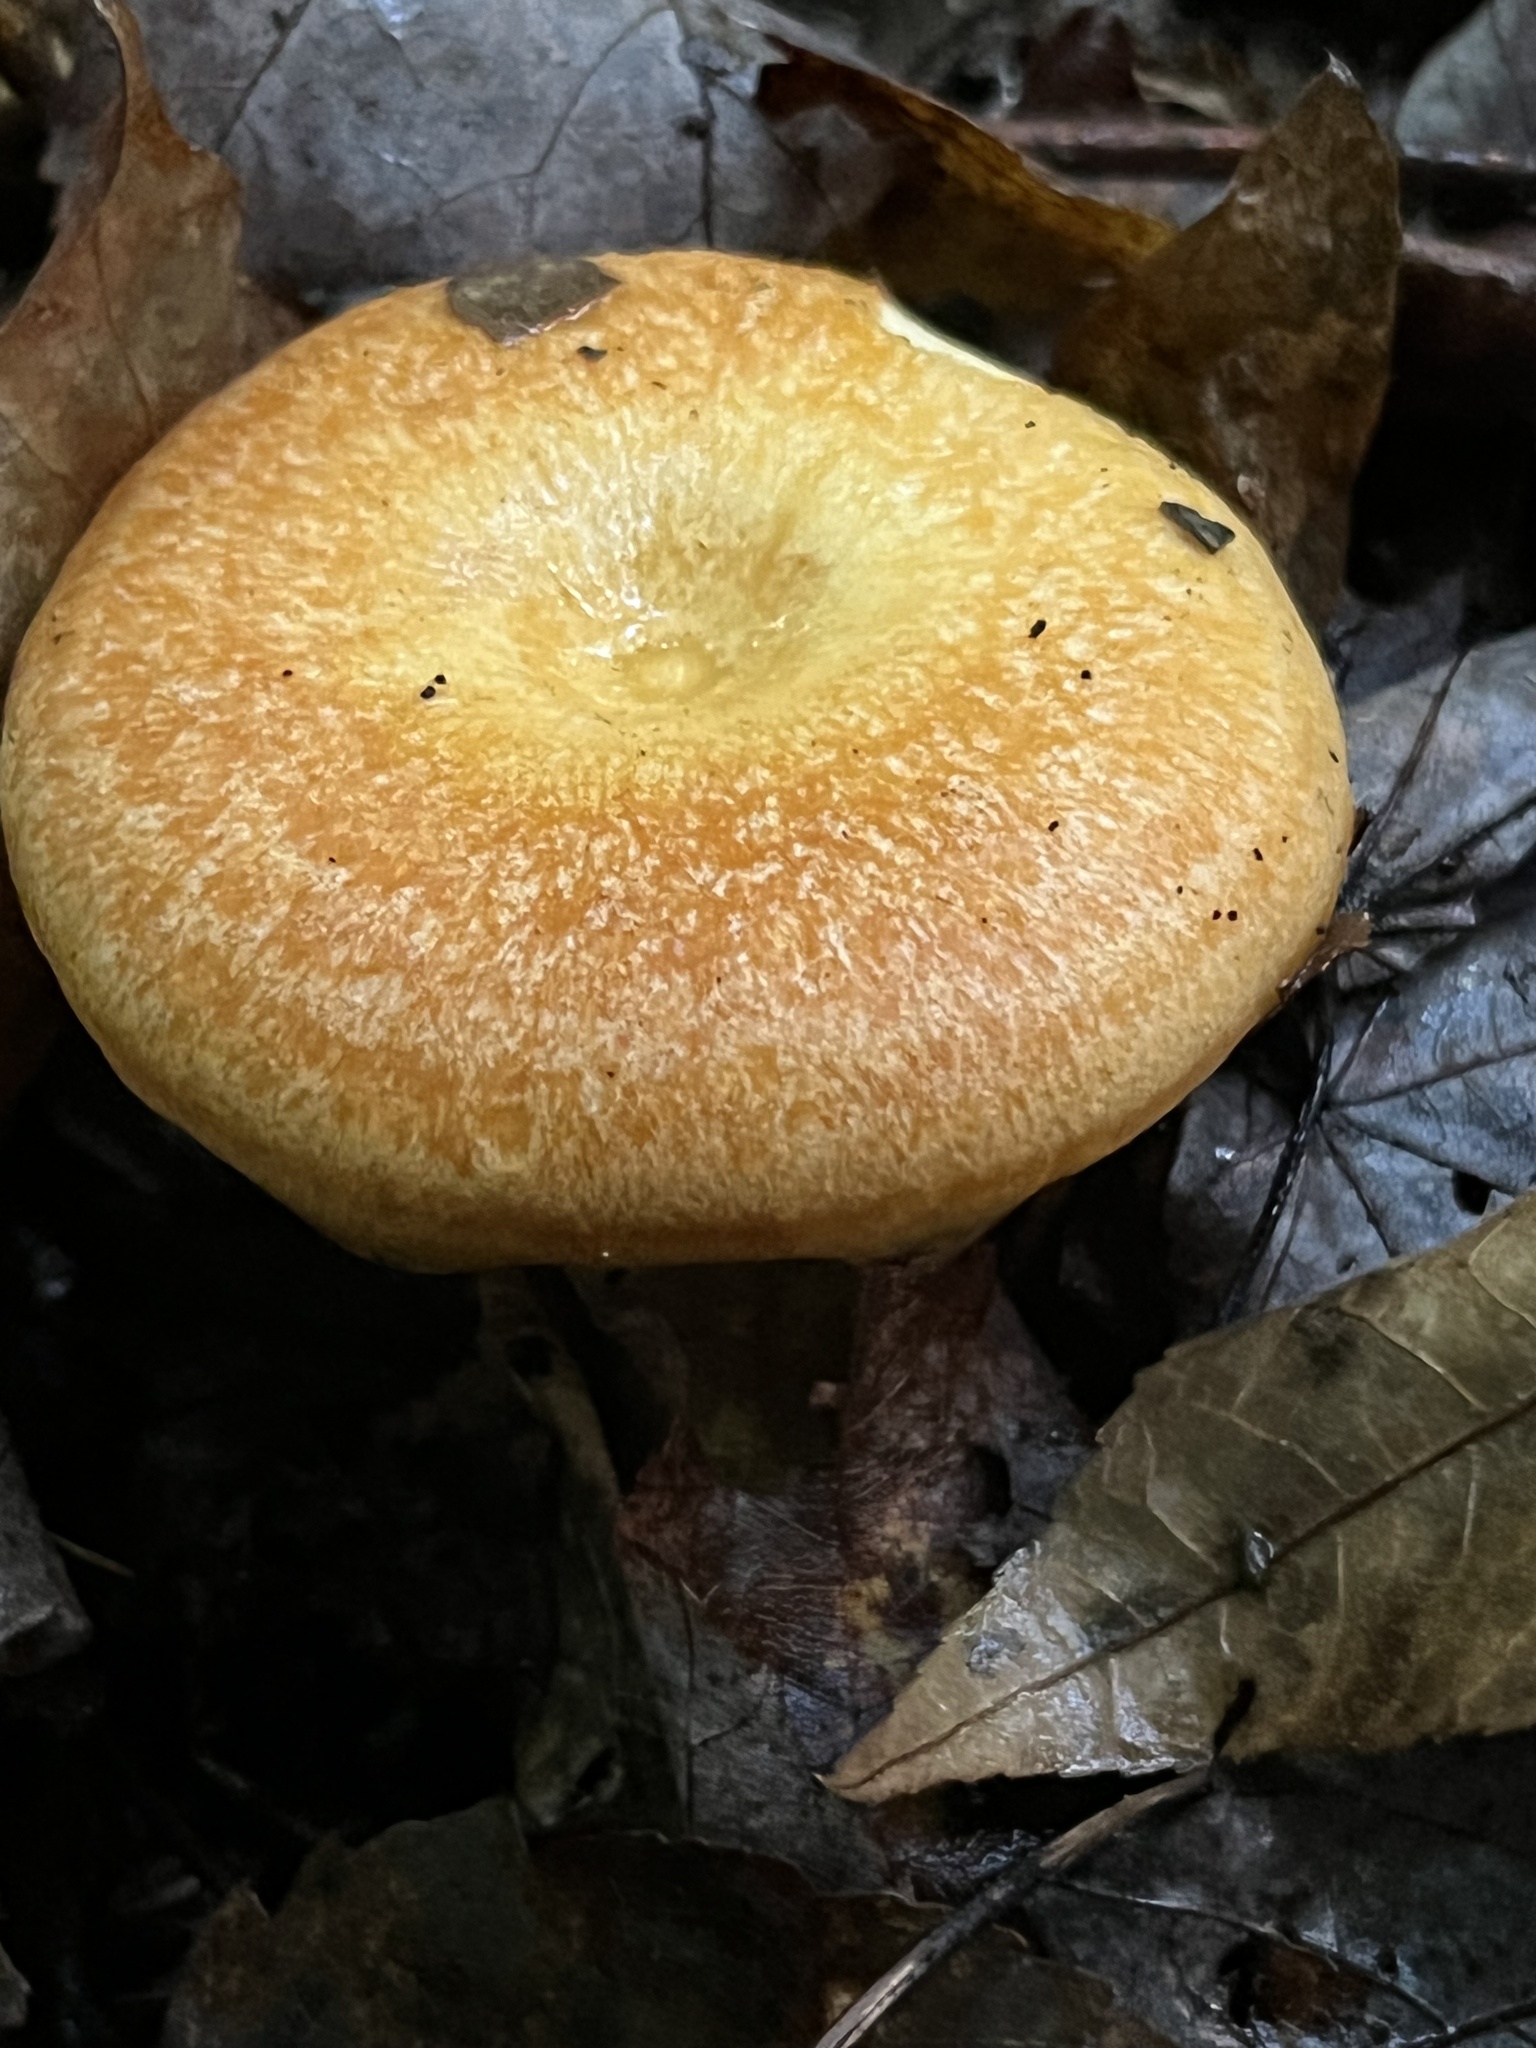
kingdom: Fungi
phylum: Basidiomycota
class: Agaricomycetes
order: Russulales
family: Russulaceae
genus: Lactarius
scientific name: Lactarius croceus
